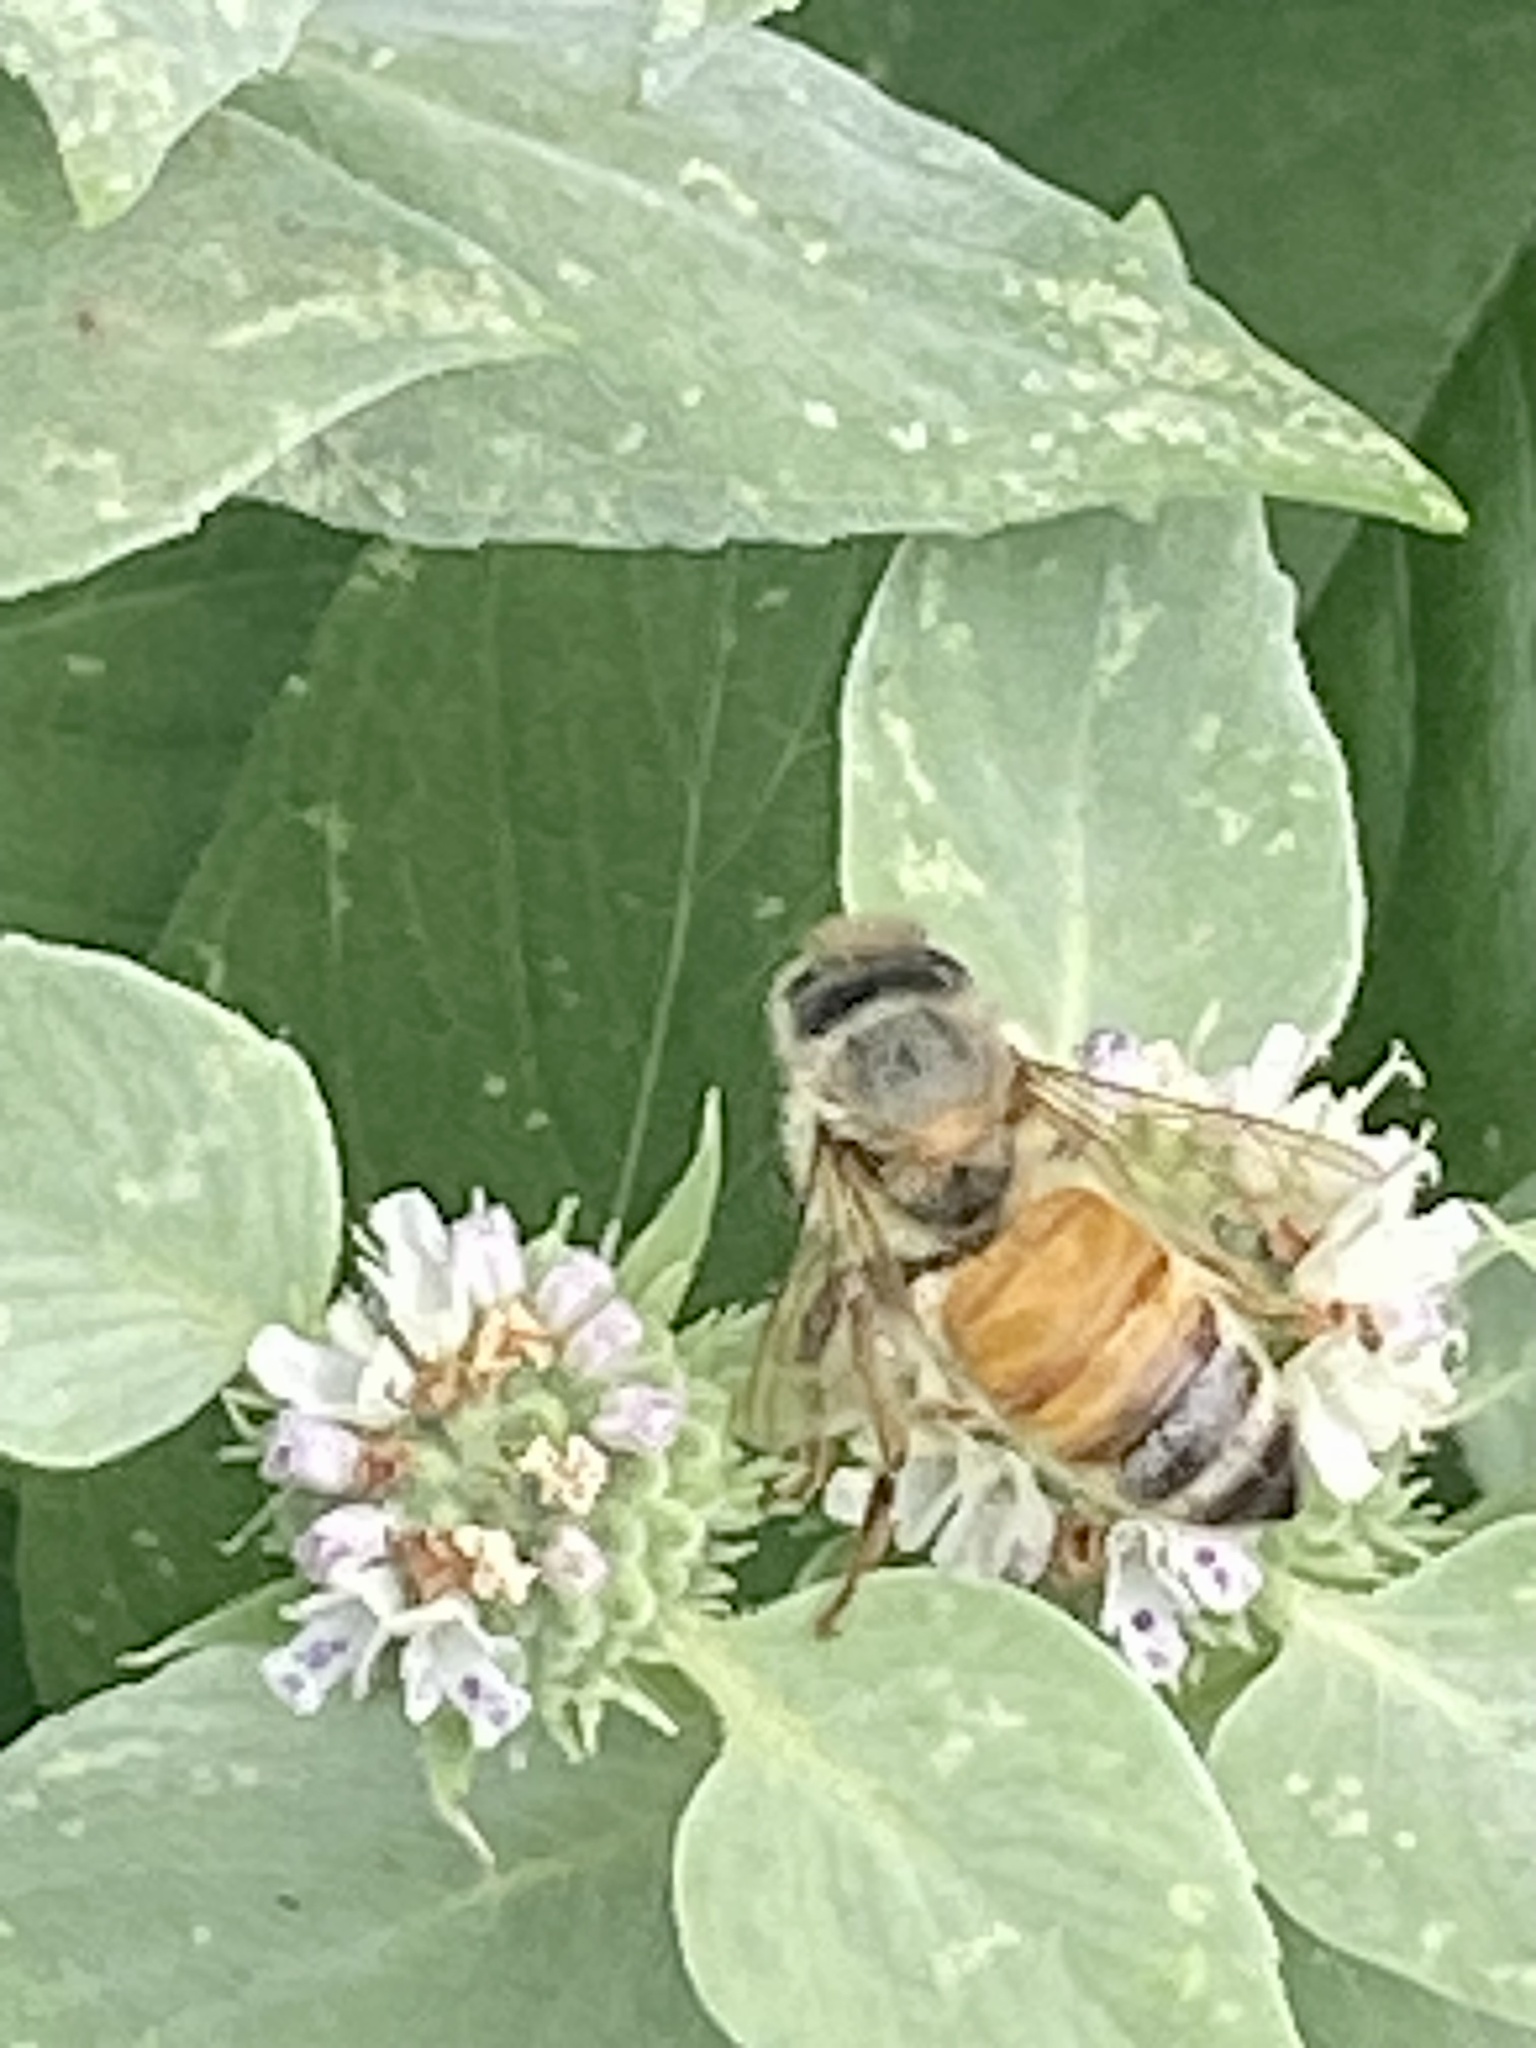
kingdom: Animalia
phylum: Arthropoda
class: Insecta
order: Hymenoptera
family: Apidae
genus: Apis
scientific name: Apis mellifera
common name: Honey bee
